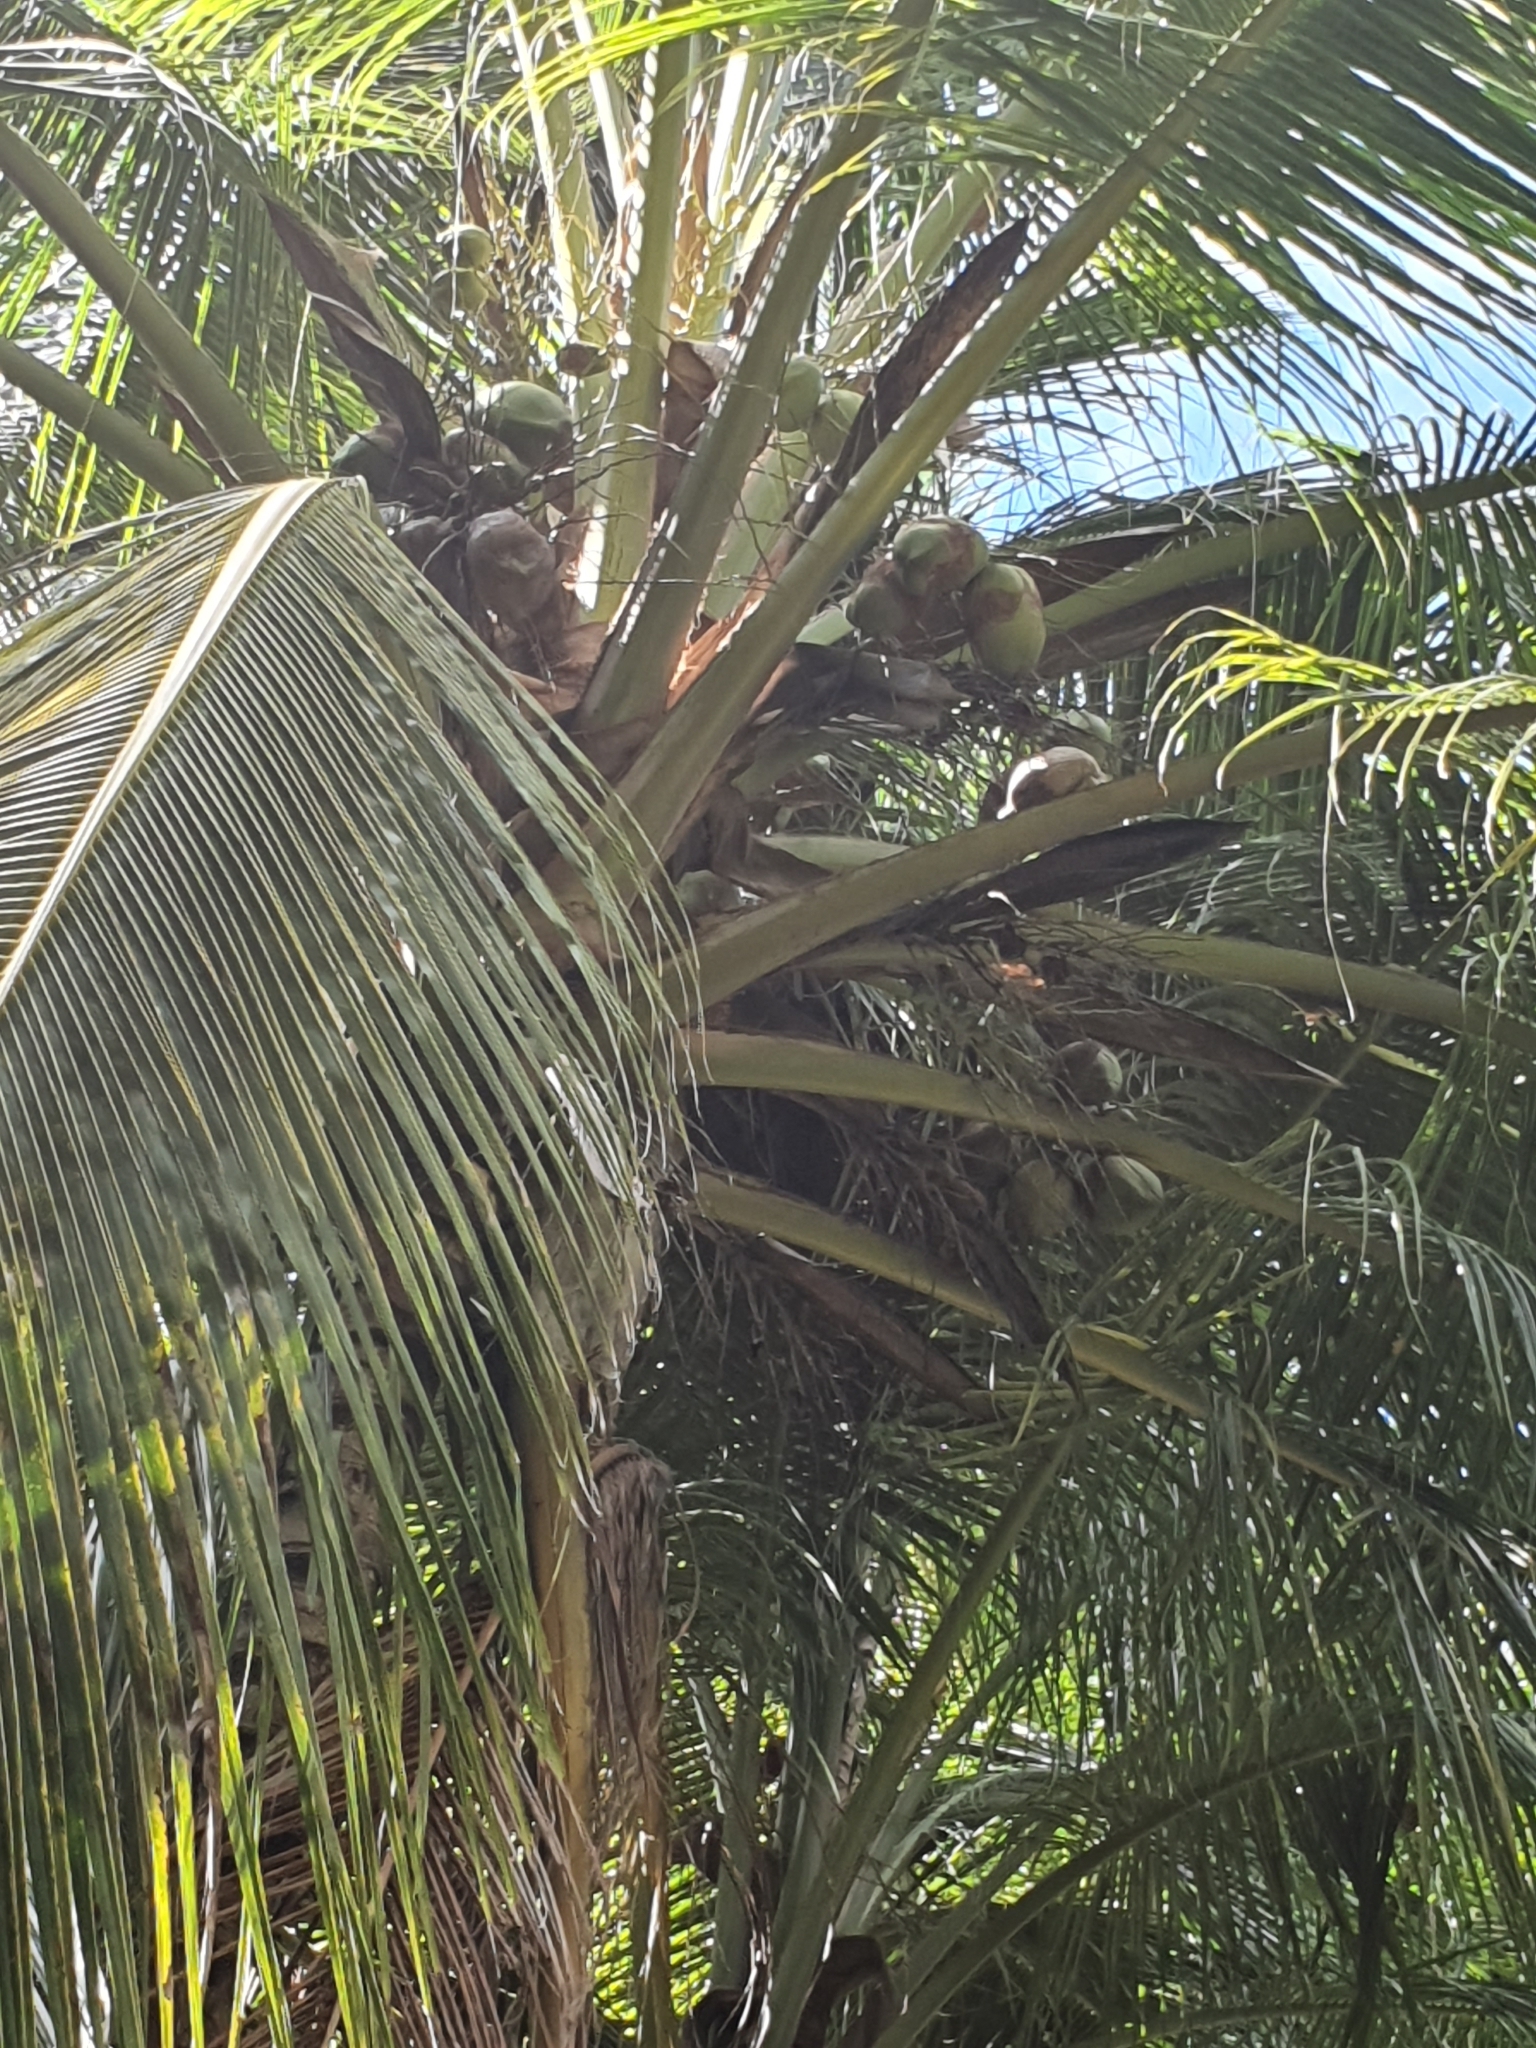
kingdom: Plantae
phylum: Tracheophyta
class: Liliopsida
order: Arecales
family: Arecaceae
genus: Cocos
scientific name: Cocos nucifera
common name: Coconut palm
